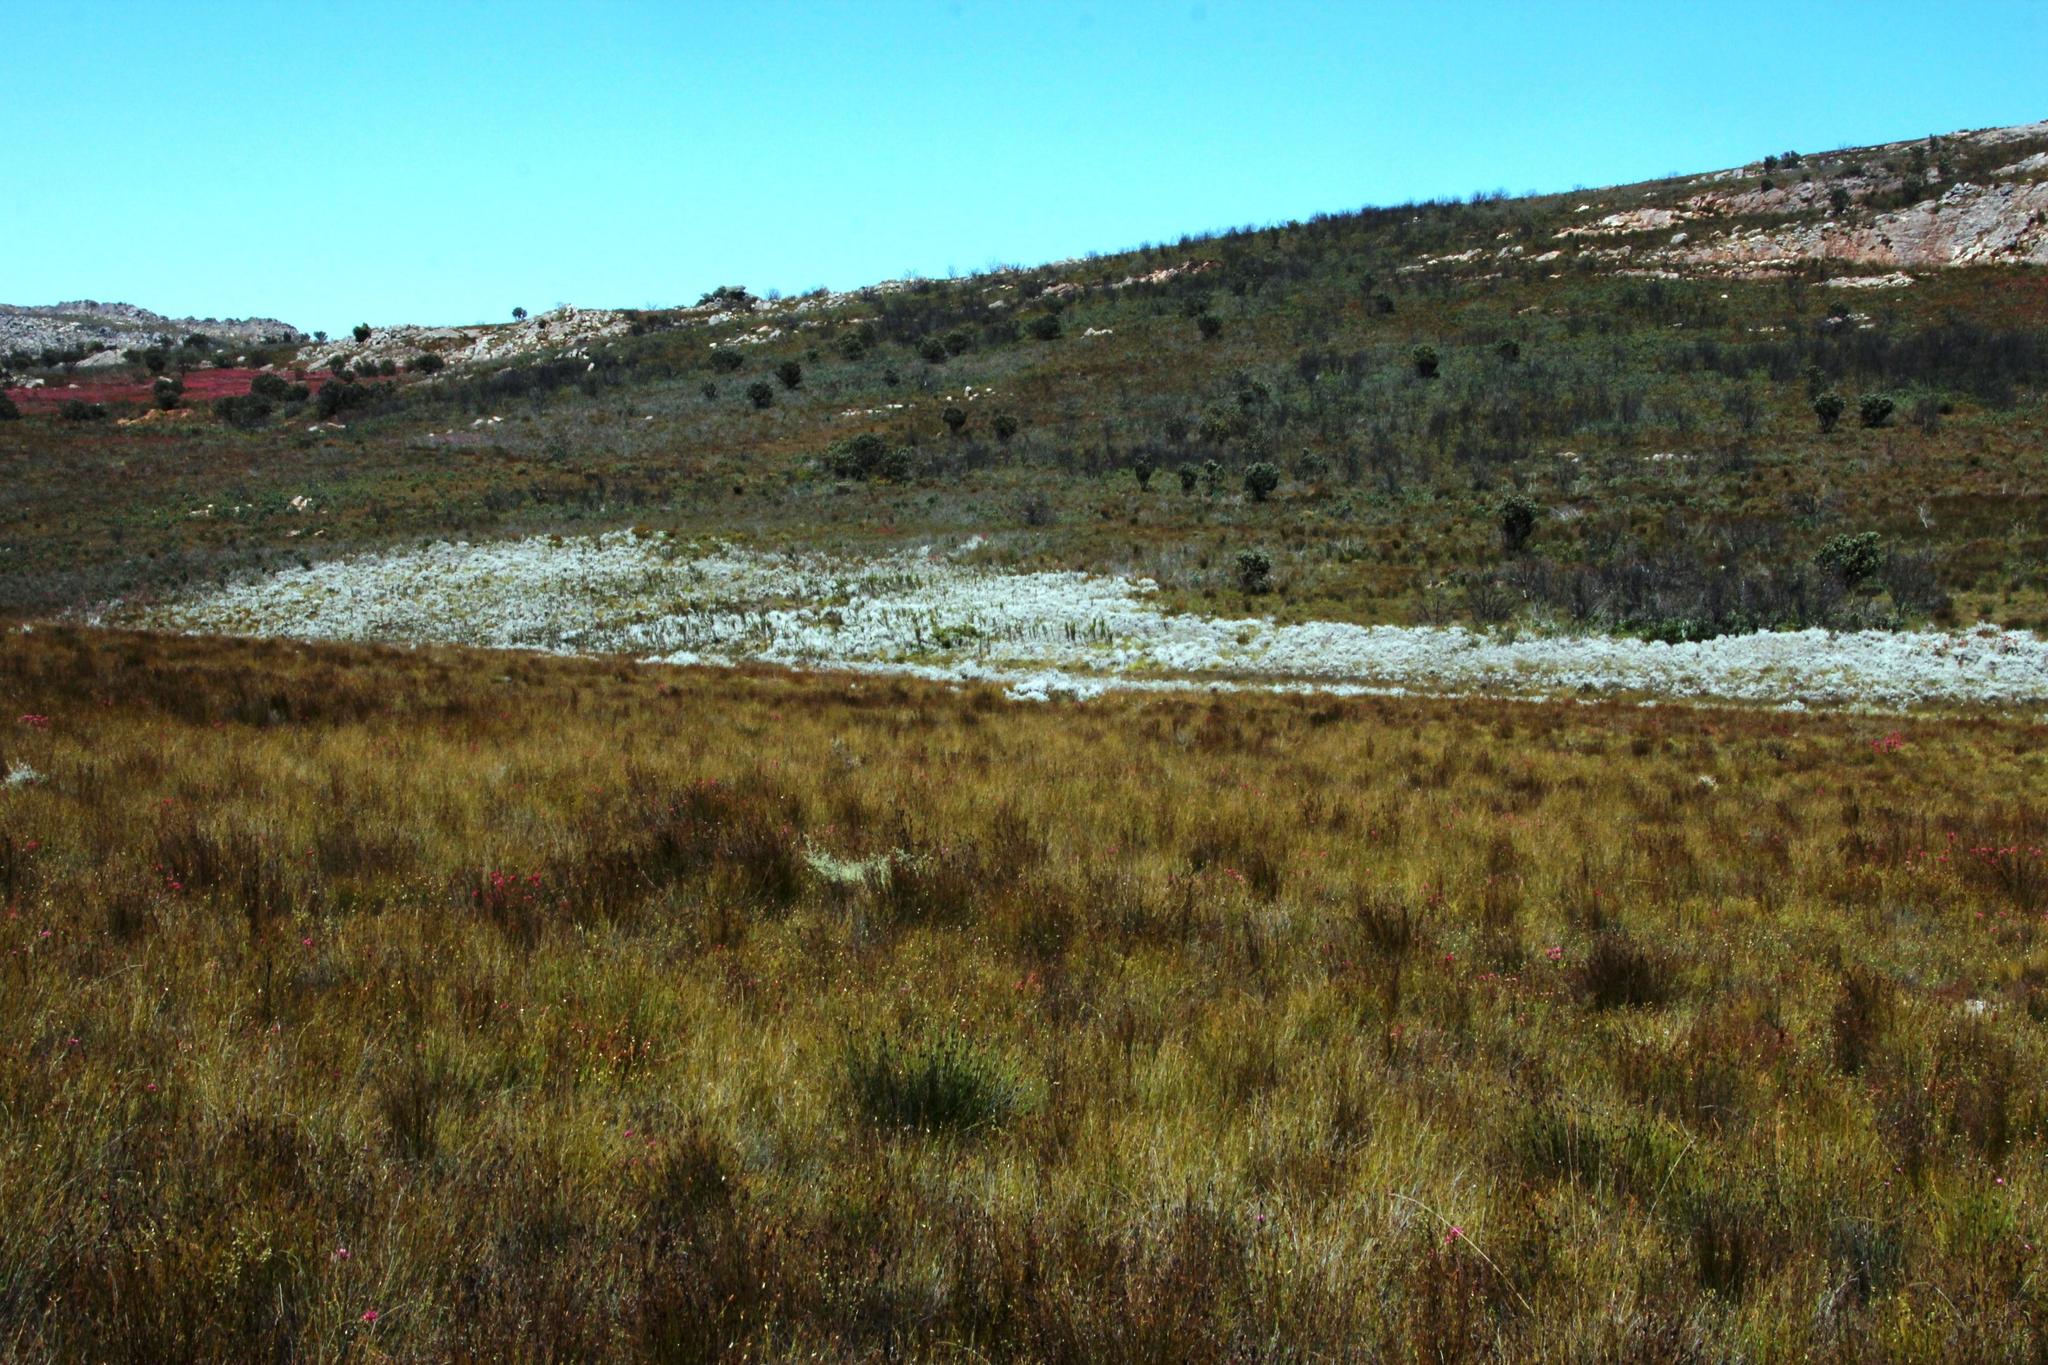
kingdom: Plantae
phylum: Tracheophyta
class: Magnoliopsida
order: Asterales
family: Asteraceae
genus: Seriphium
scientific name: Seriphium plumosum
